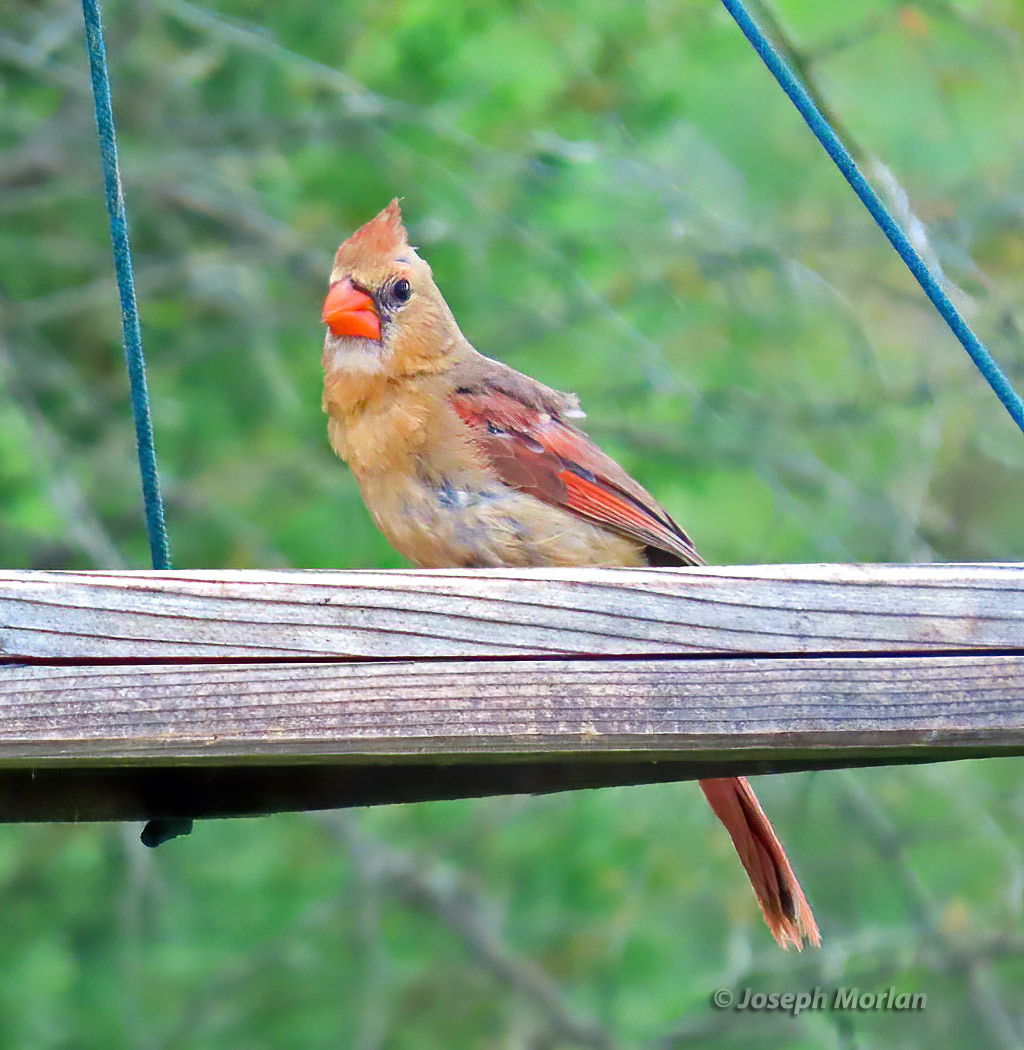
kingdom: Animalia
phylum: Chordata
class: Aves
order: Passeriformes
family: Cardinalidae
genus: Cardinalis
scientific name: Cardinalis cardinalis
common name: Northern cardinal
